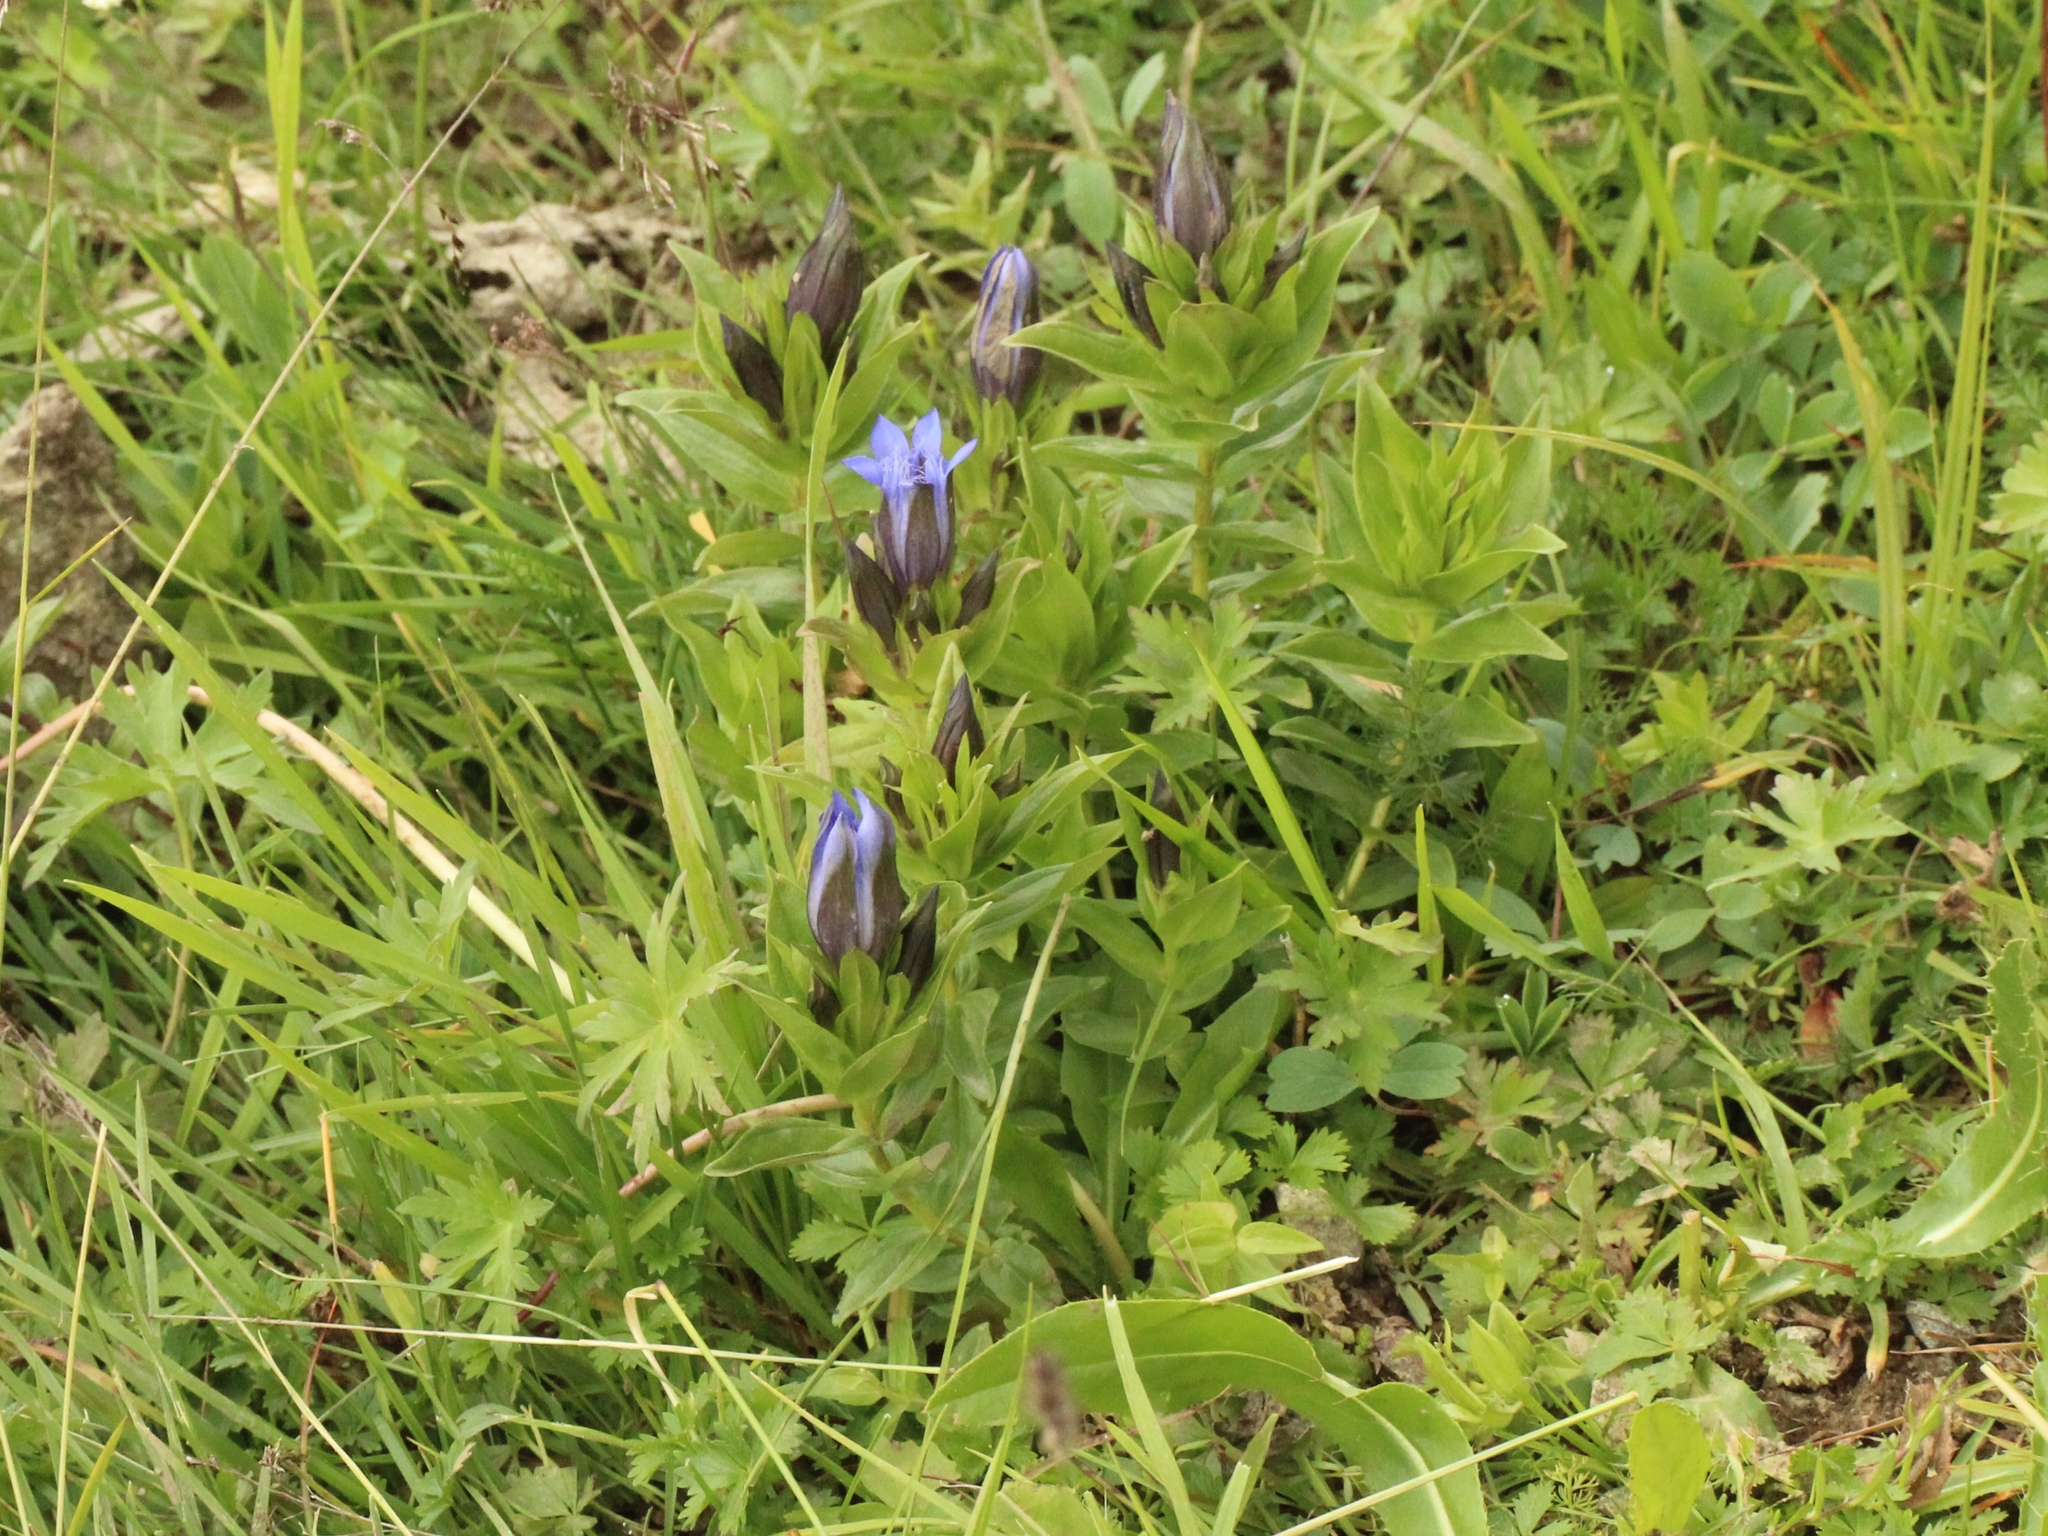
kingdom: Plantae
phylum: Tracheophyta
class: Magnoliopsida
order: Gentianales
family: Gentianaceae
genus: Gentiana
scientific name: Gentiana septemfida
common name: Crested gentian
